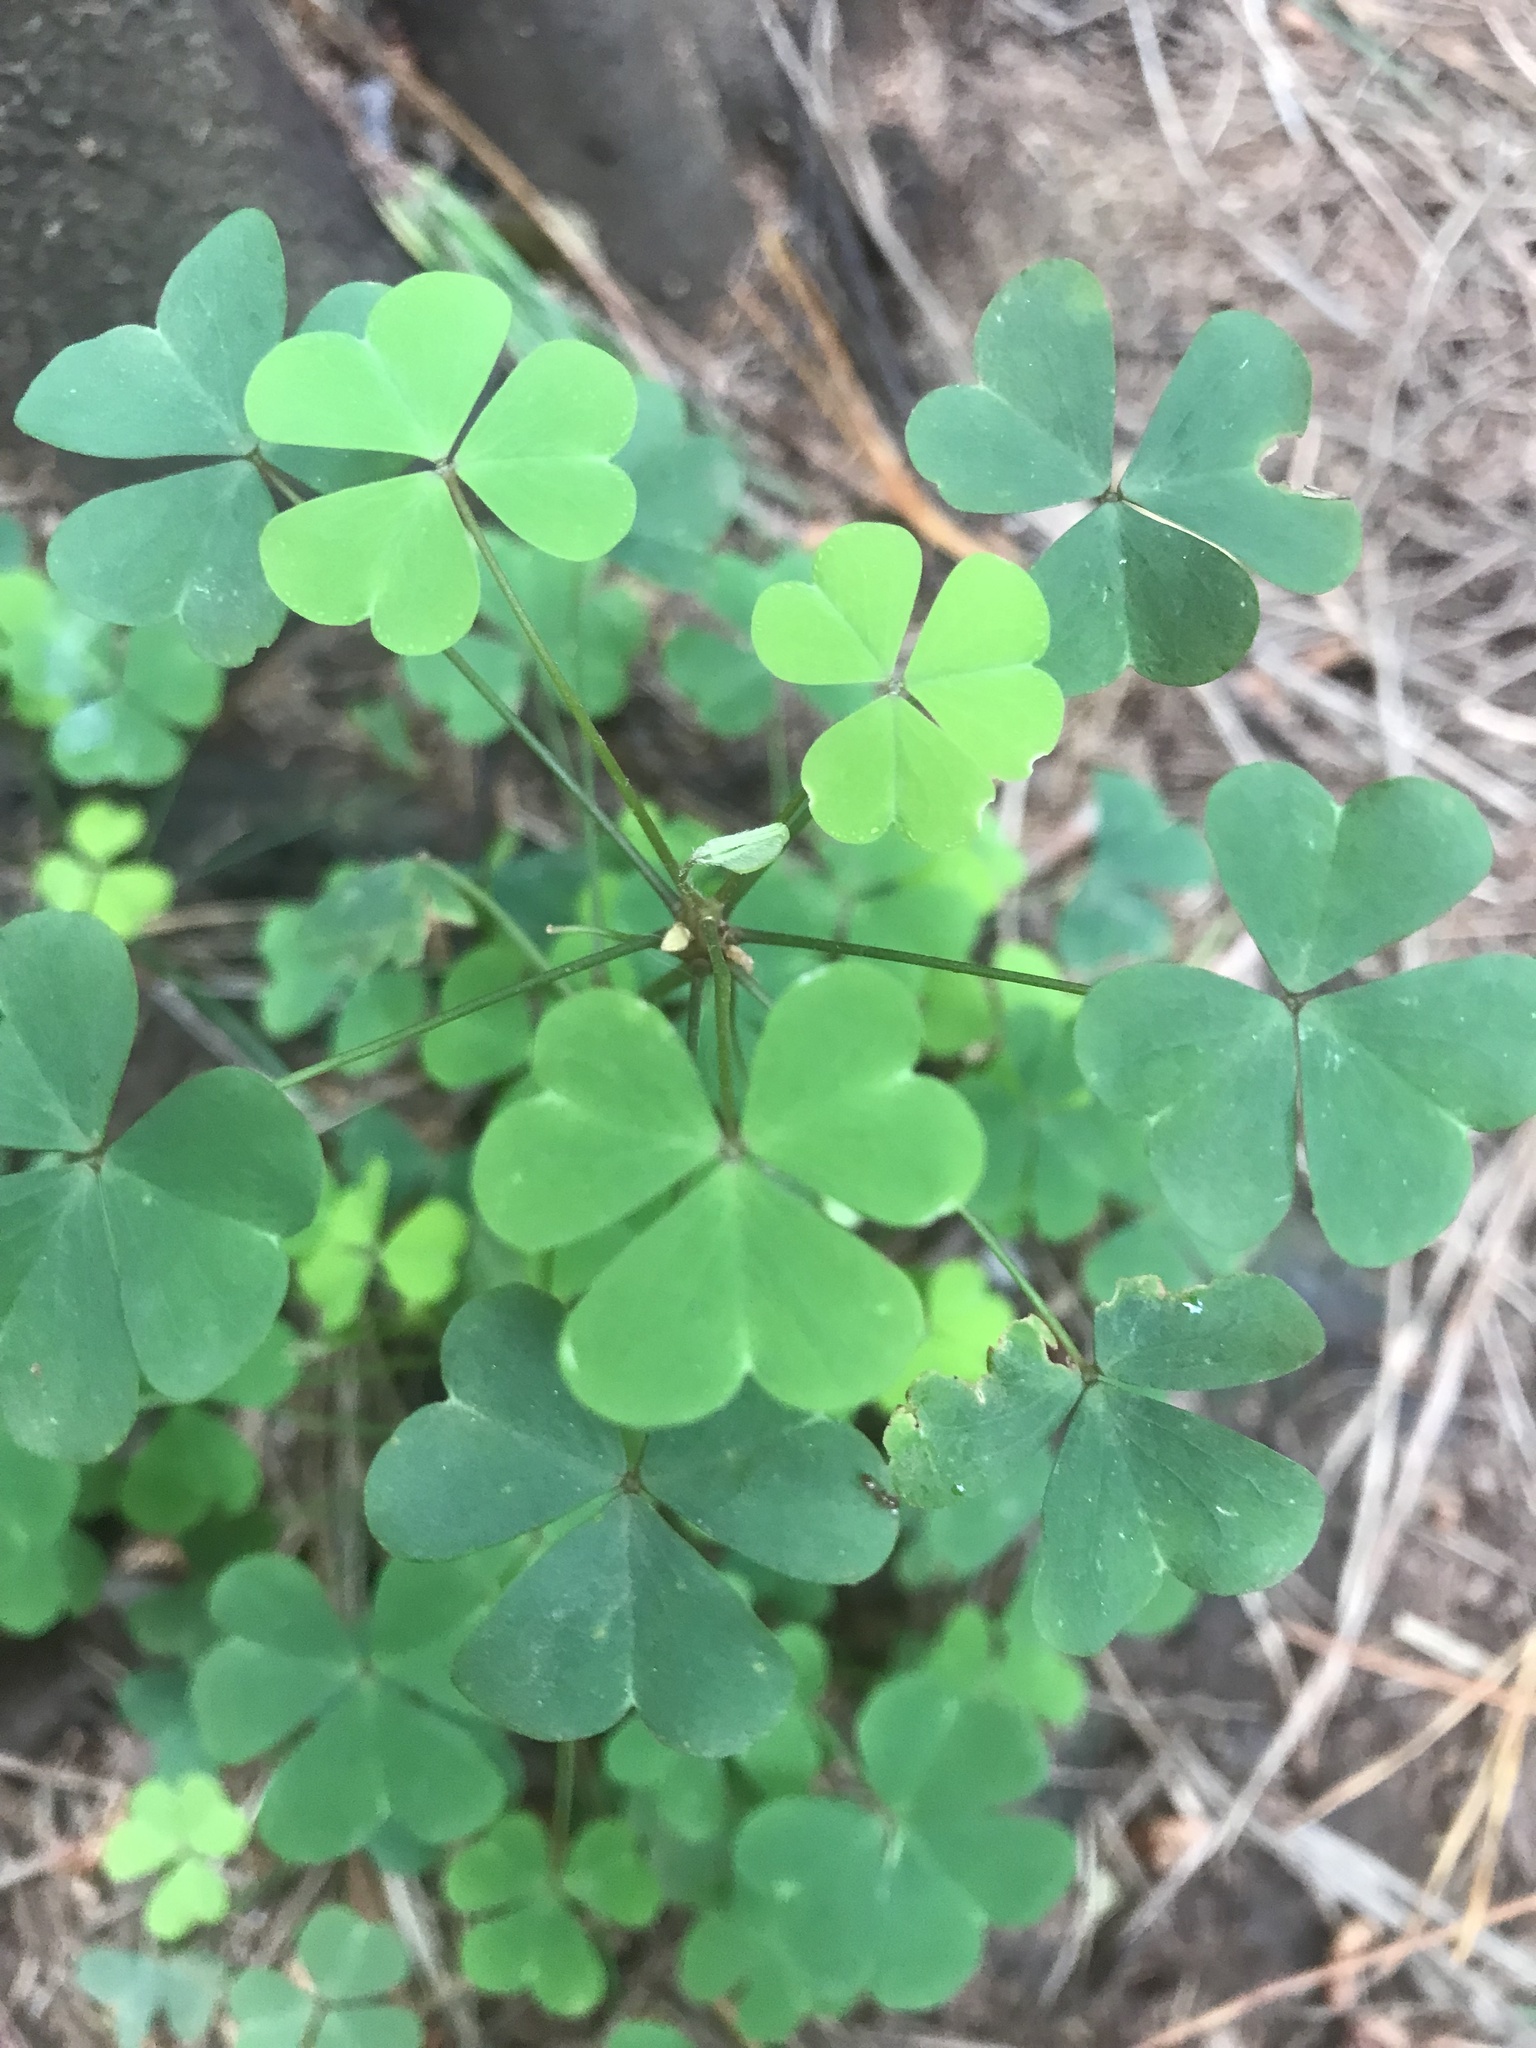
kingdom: Plantae
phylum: Tracheophyta
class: Magnoliopsida
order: Oxalidales
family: Oxalidaceae
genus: Oxalis
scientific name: Oxalis incarnata
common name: Pale pink-sorrel
